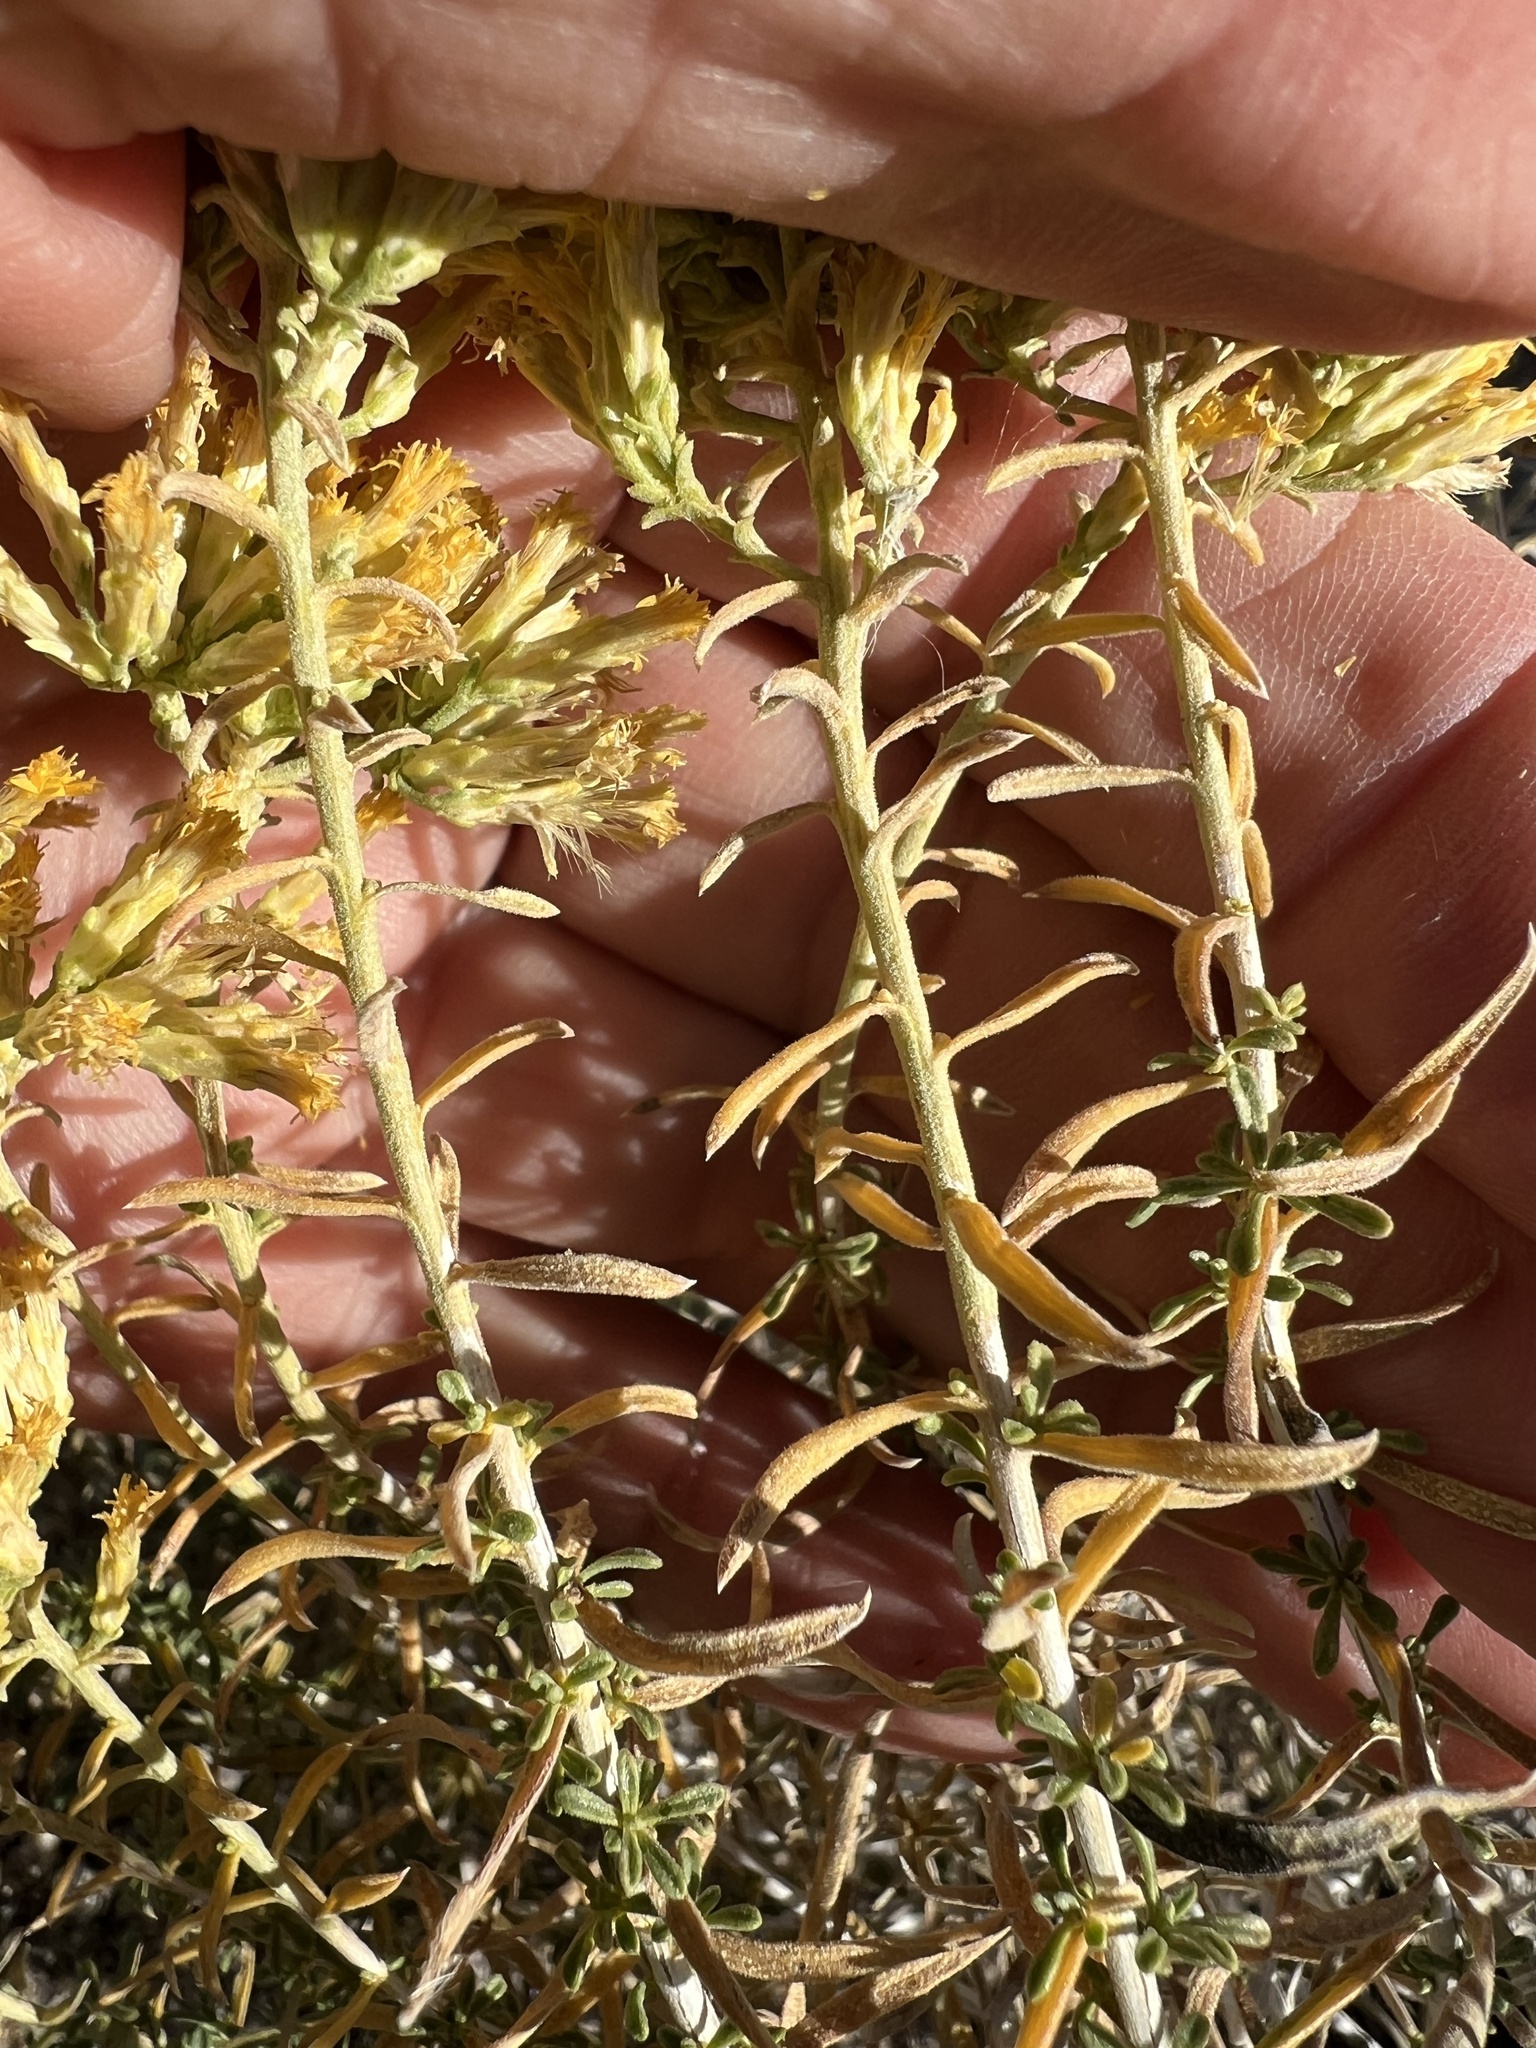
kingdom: Plantae
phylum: Tracheophyta
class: Magnoliopsida
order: Asterales
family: Asteraceae
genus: Chrysothamnus
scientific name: Chrysothamnus viscidiflorus
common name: Yellow rabbitbrush
